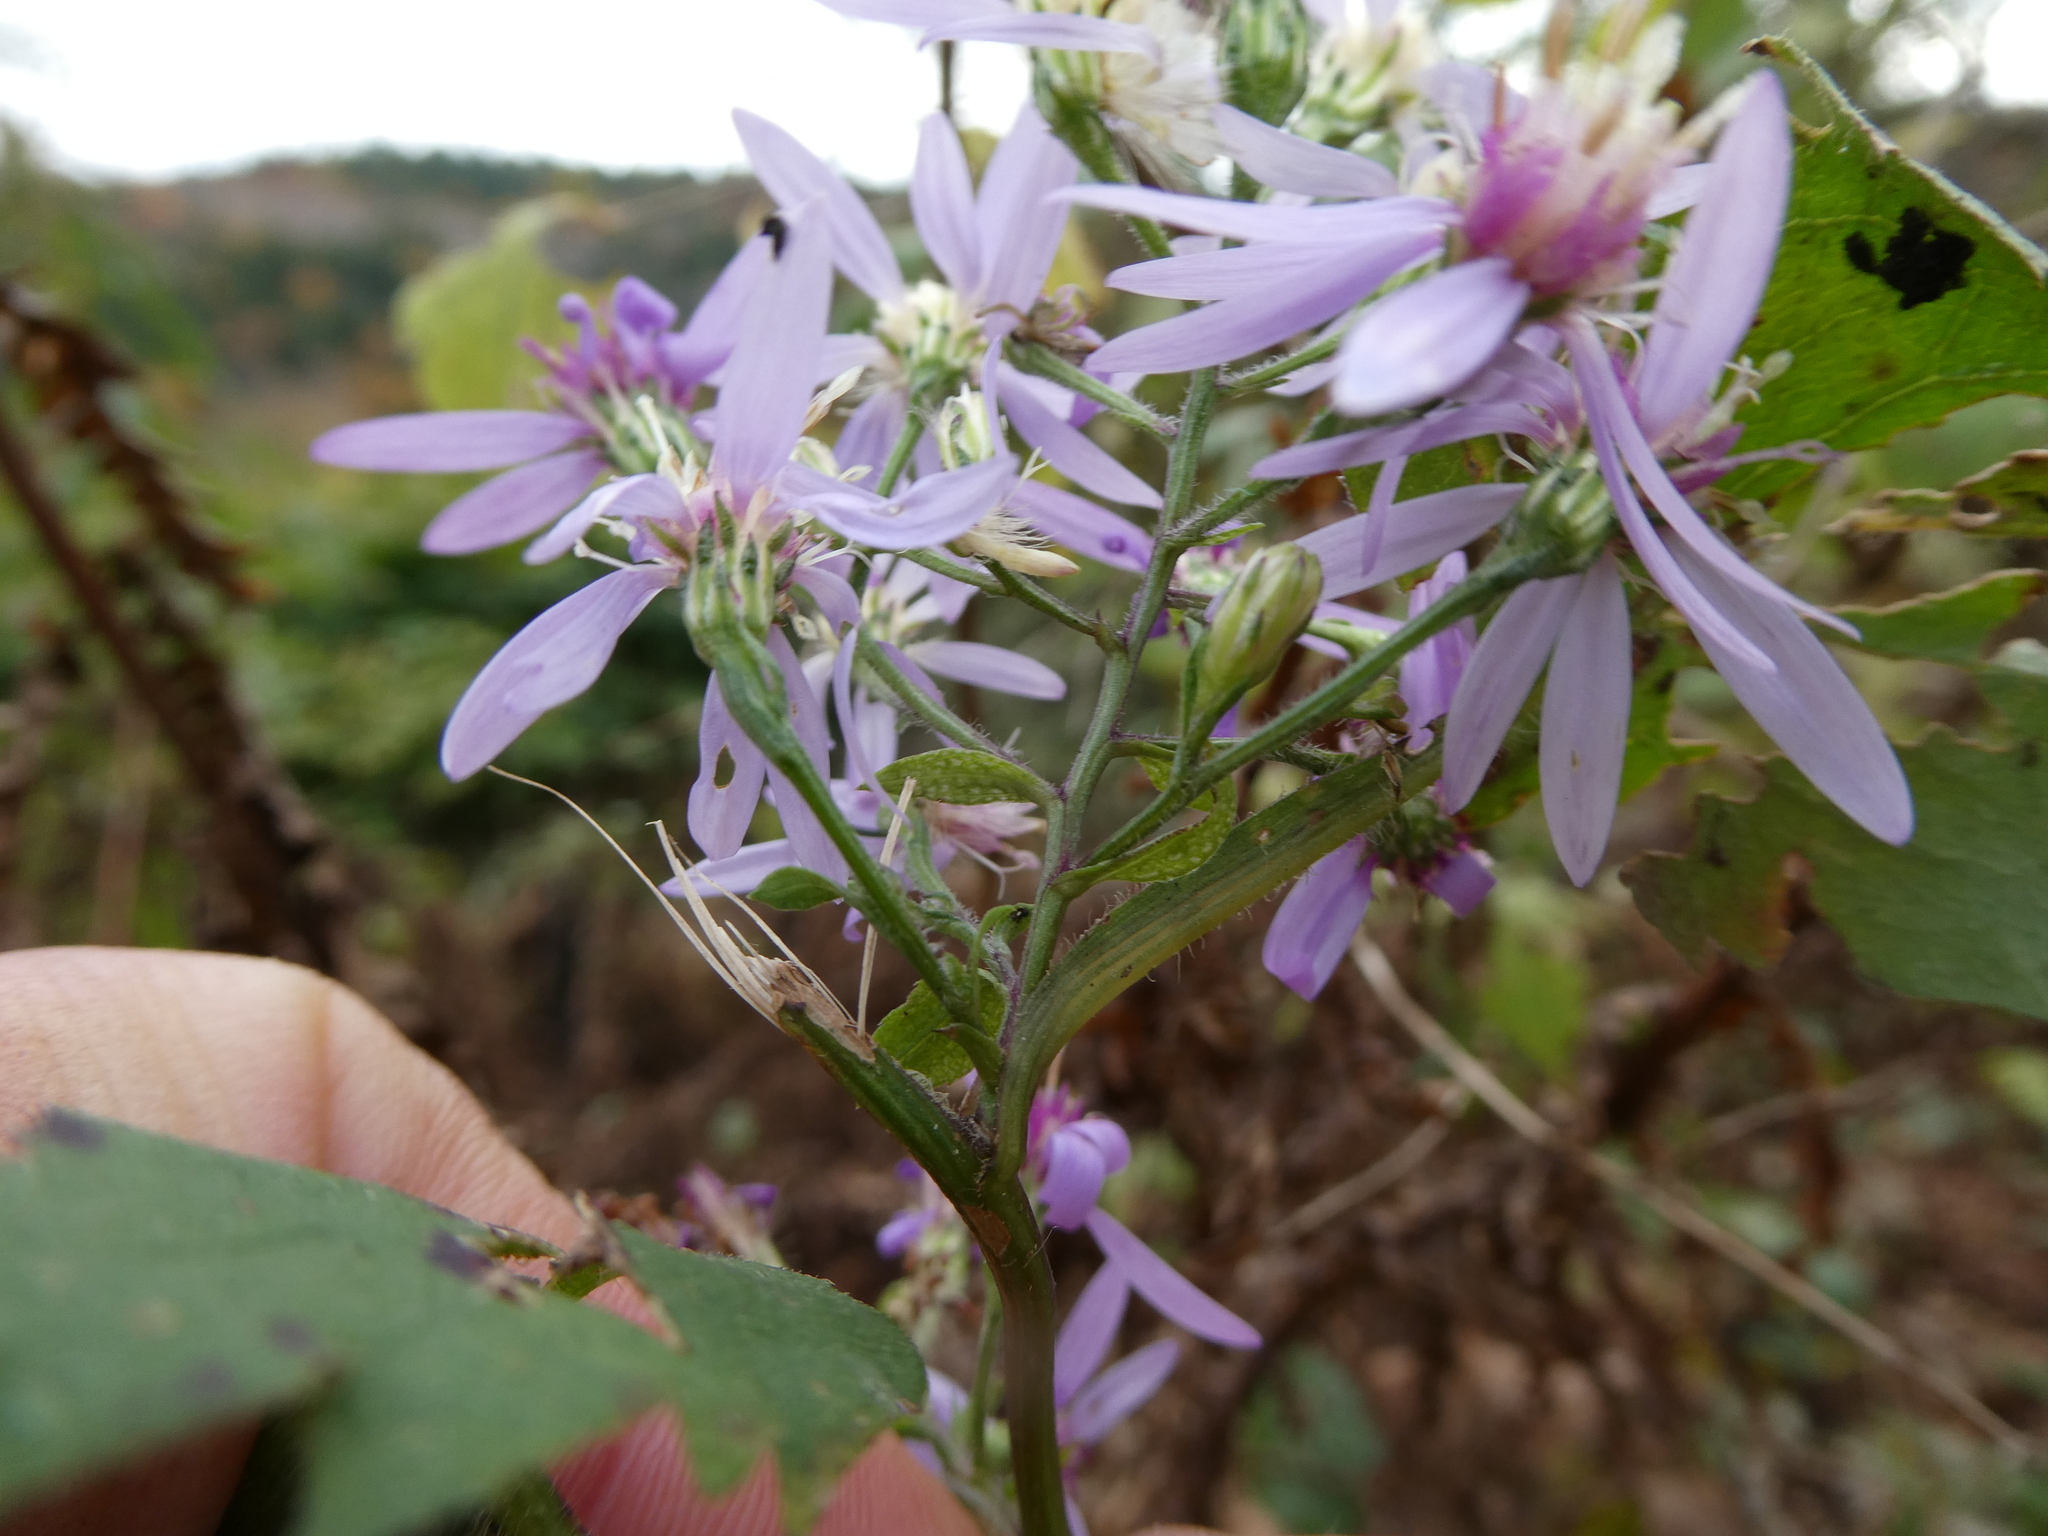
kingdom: Plantae
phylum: Tracheophyta
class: Magnoliopsida
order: Asterales
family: Asteraceae
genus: Symphyotrichum
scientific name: Symphyotrichum cordifolium
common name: Beeweed
